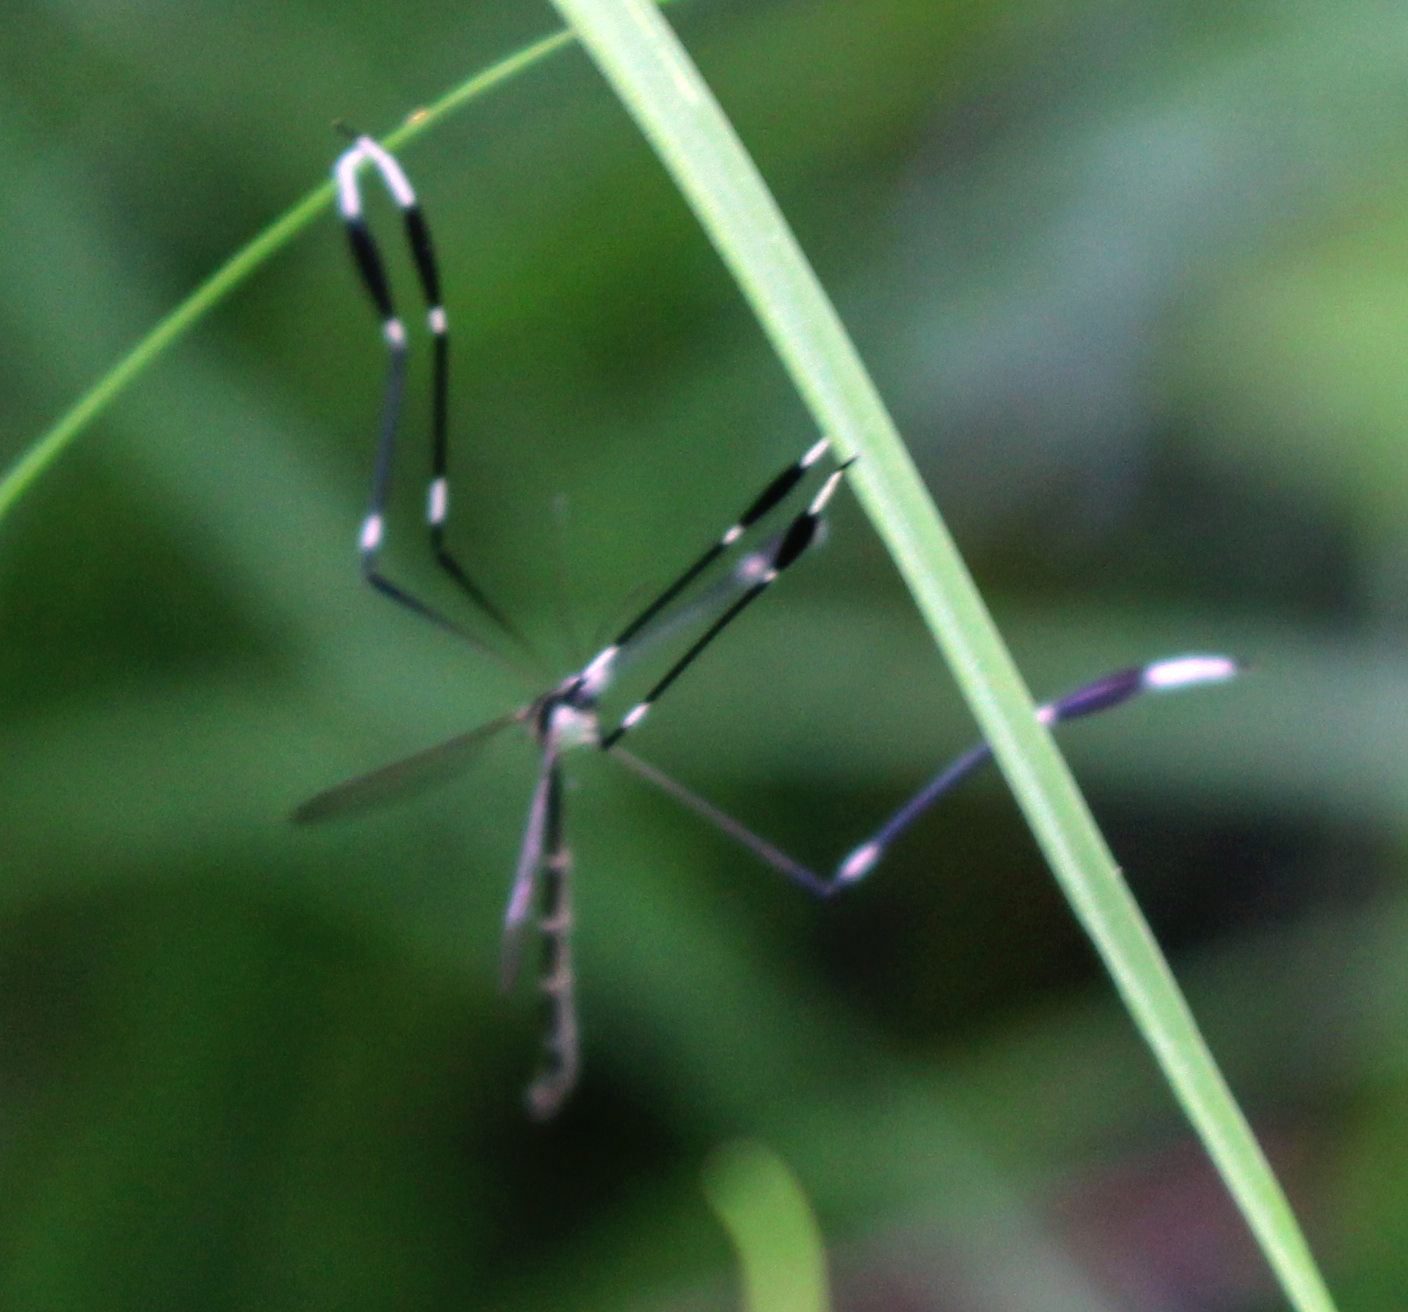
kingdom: Animalia
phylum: Arthropoda
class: Insecta
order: Diptera
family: Ptychopteridae
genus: Bittacomorpha
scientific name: Bittacomorpha clavipes
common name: Eastern phantom crane fly
